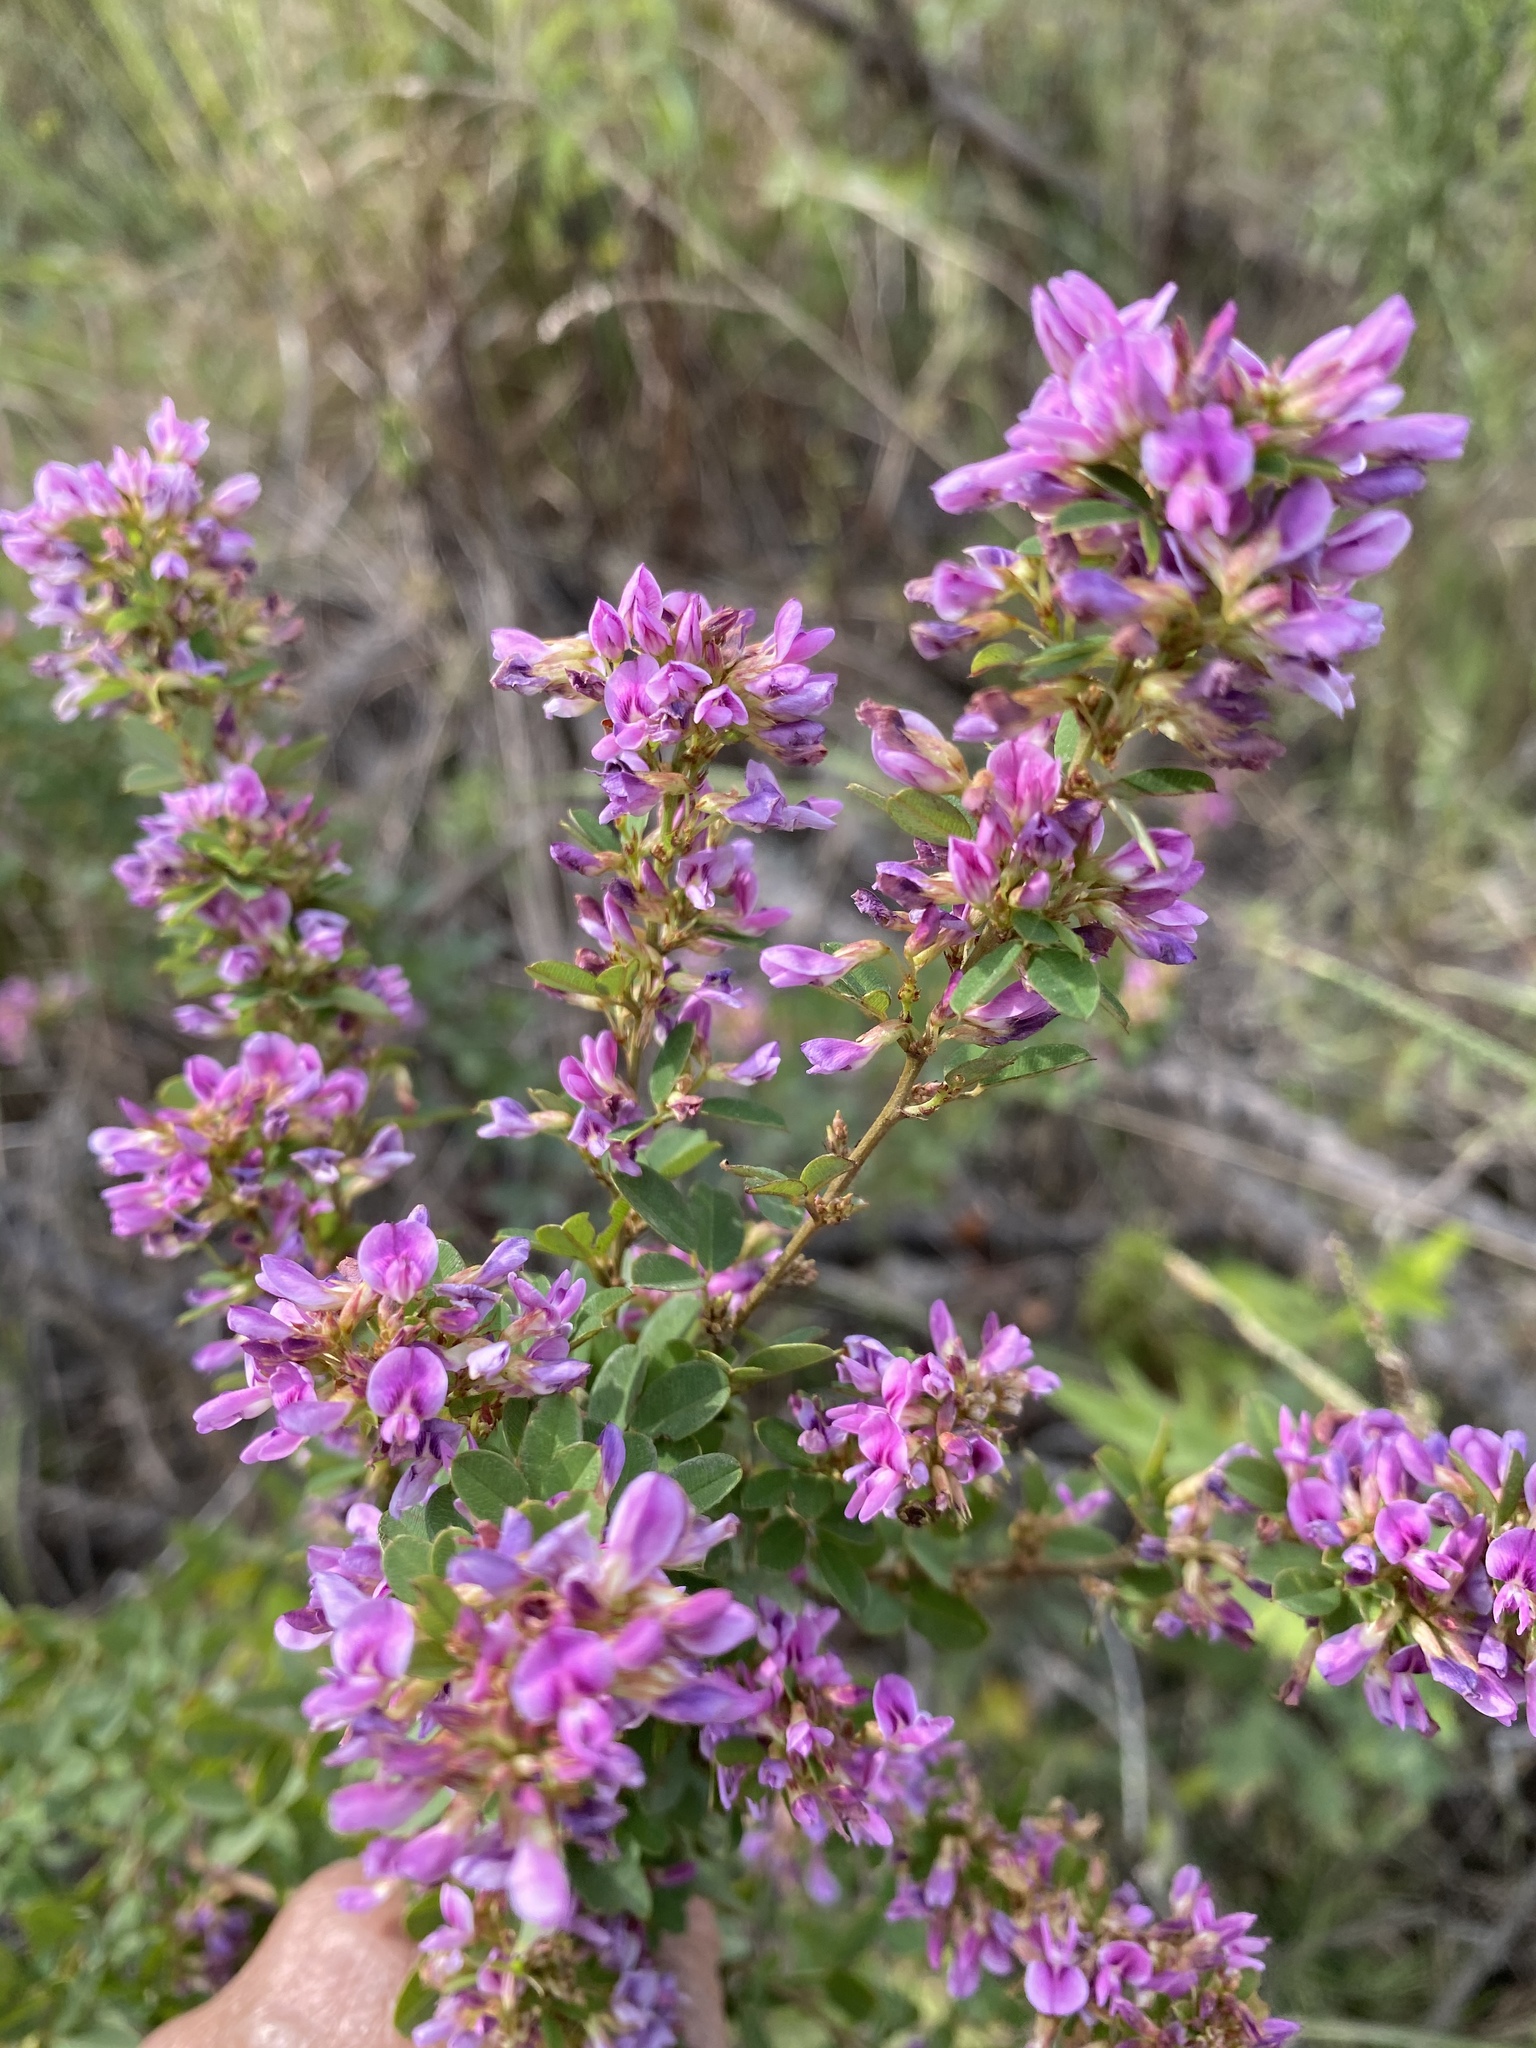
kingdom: Plantae
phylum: Tracheophyta
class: Magnoliopsida
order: Fabales
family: Fabaceae
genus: Lespedeza
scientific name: Lespedeza violacea
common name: Wand bush-clover
